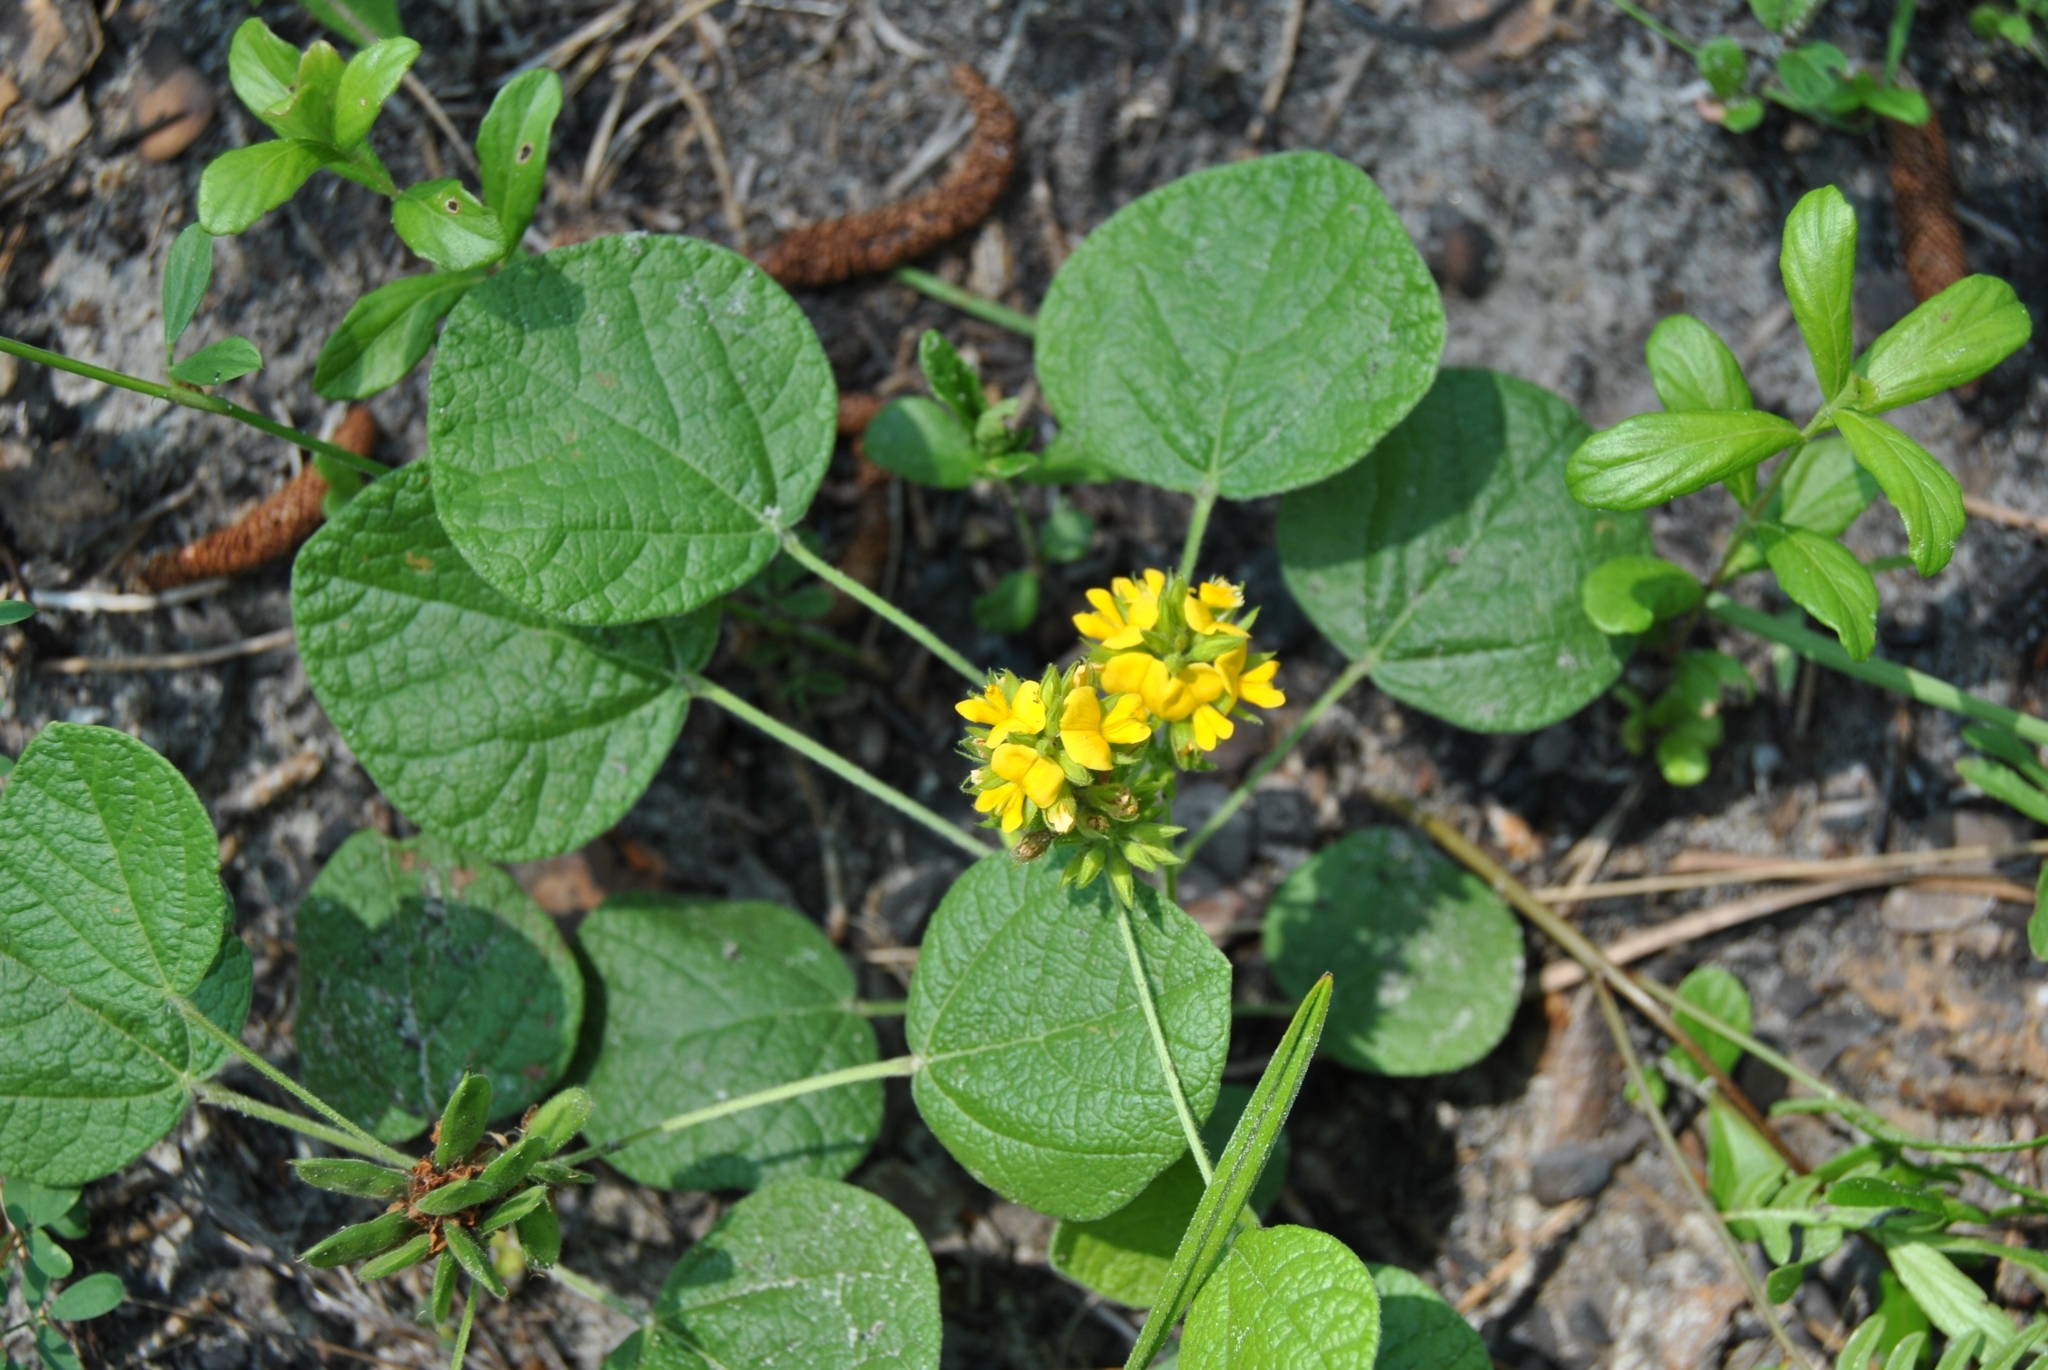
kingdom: Plantae
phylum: Tracheophyta
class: Magnoliopsida
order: Fabales
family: Fabaceae
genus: Rhynchosia
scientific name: Rhynchosia reniformis
